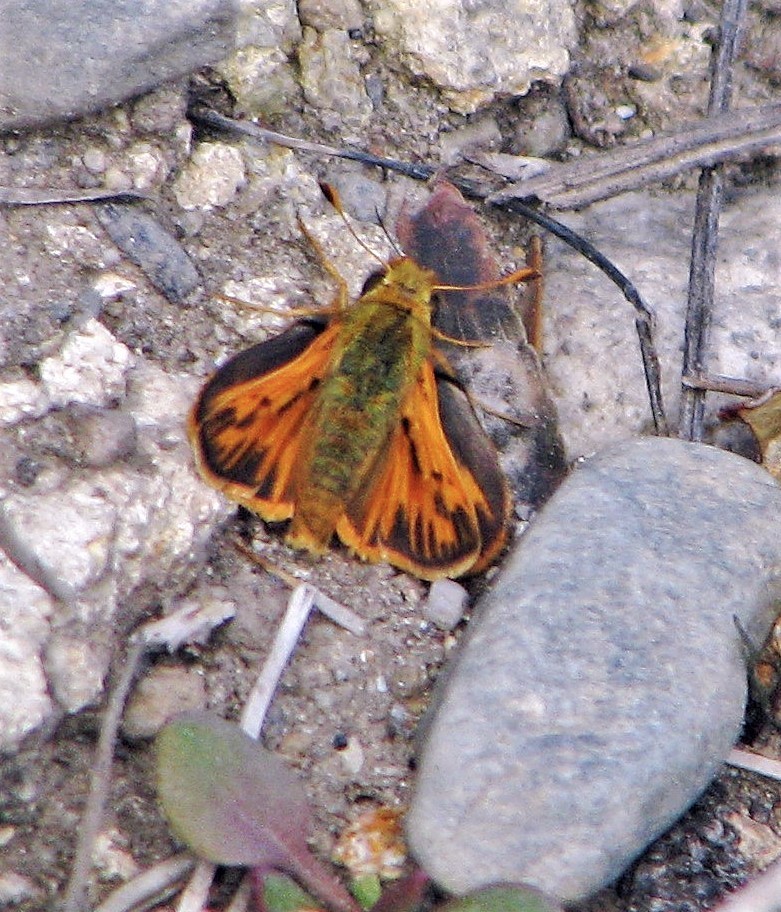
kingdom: Animalia
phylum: Arthropoda
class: Insecta
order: Lepidoptera
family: Hesperiidae
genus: Hylephila
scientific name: Hylephila signata
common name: Signata skipper
